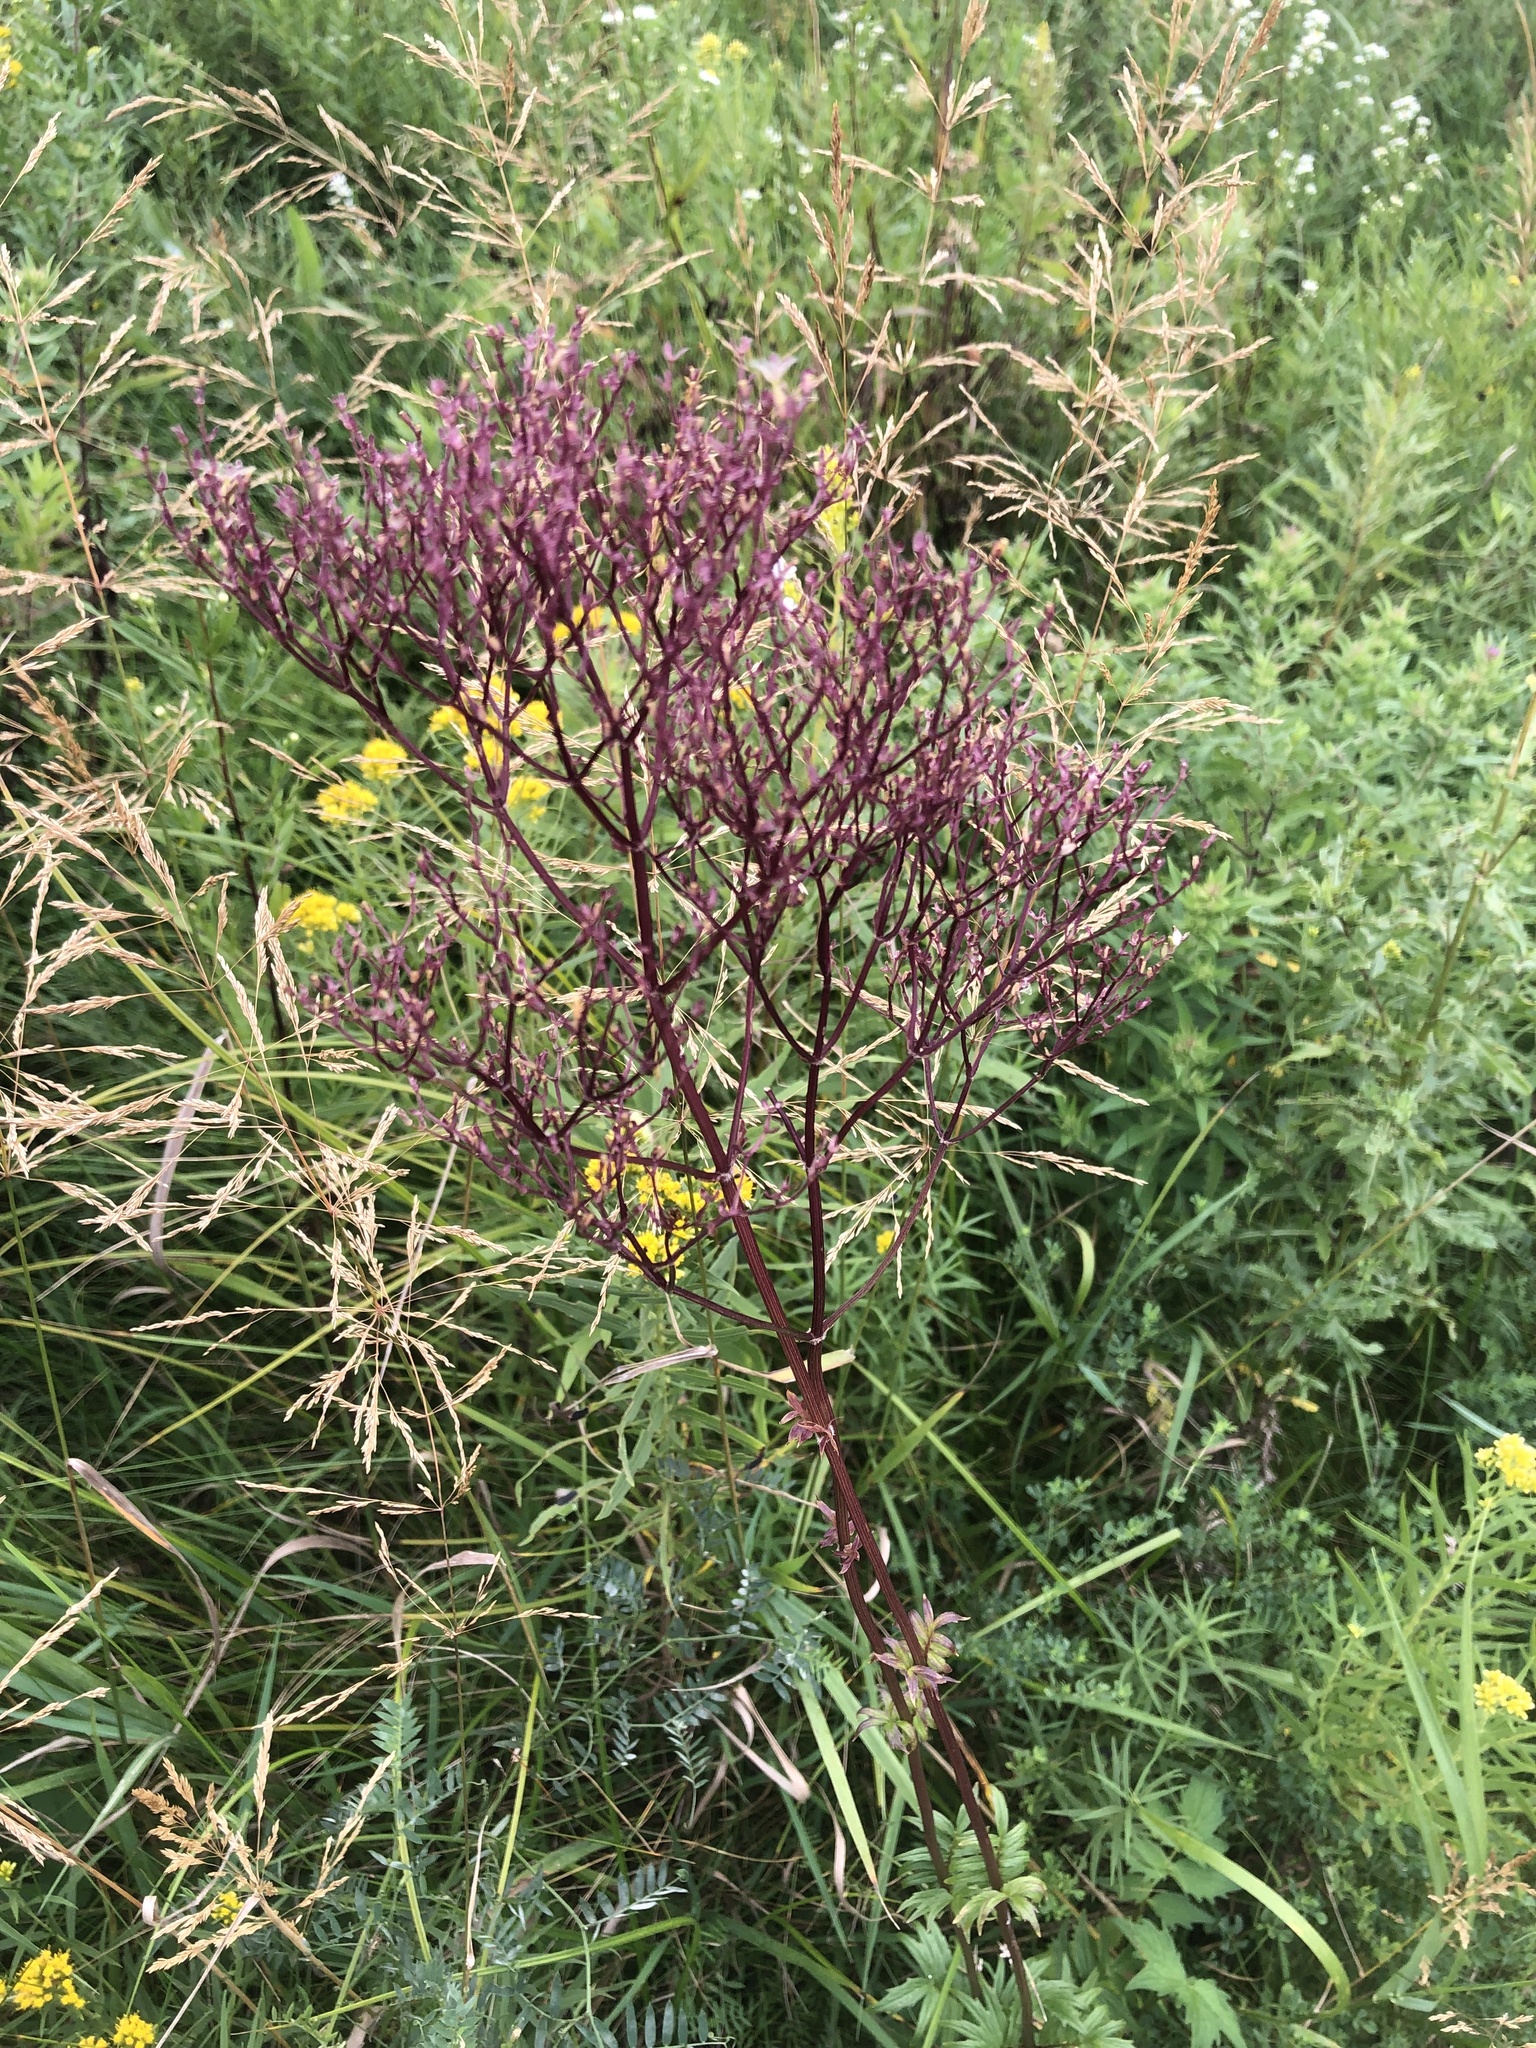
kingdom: Plantae
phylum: Tracheophyta
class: Magnoliopsida
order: Dipsacales
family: Caprifoliaceae
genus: Valeriana
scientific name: Valeriana officinalis
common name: Common valerian
